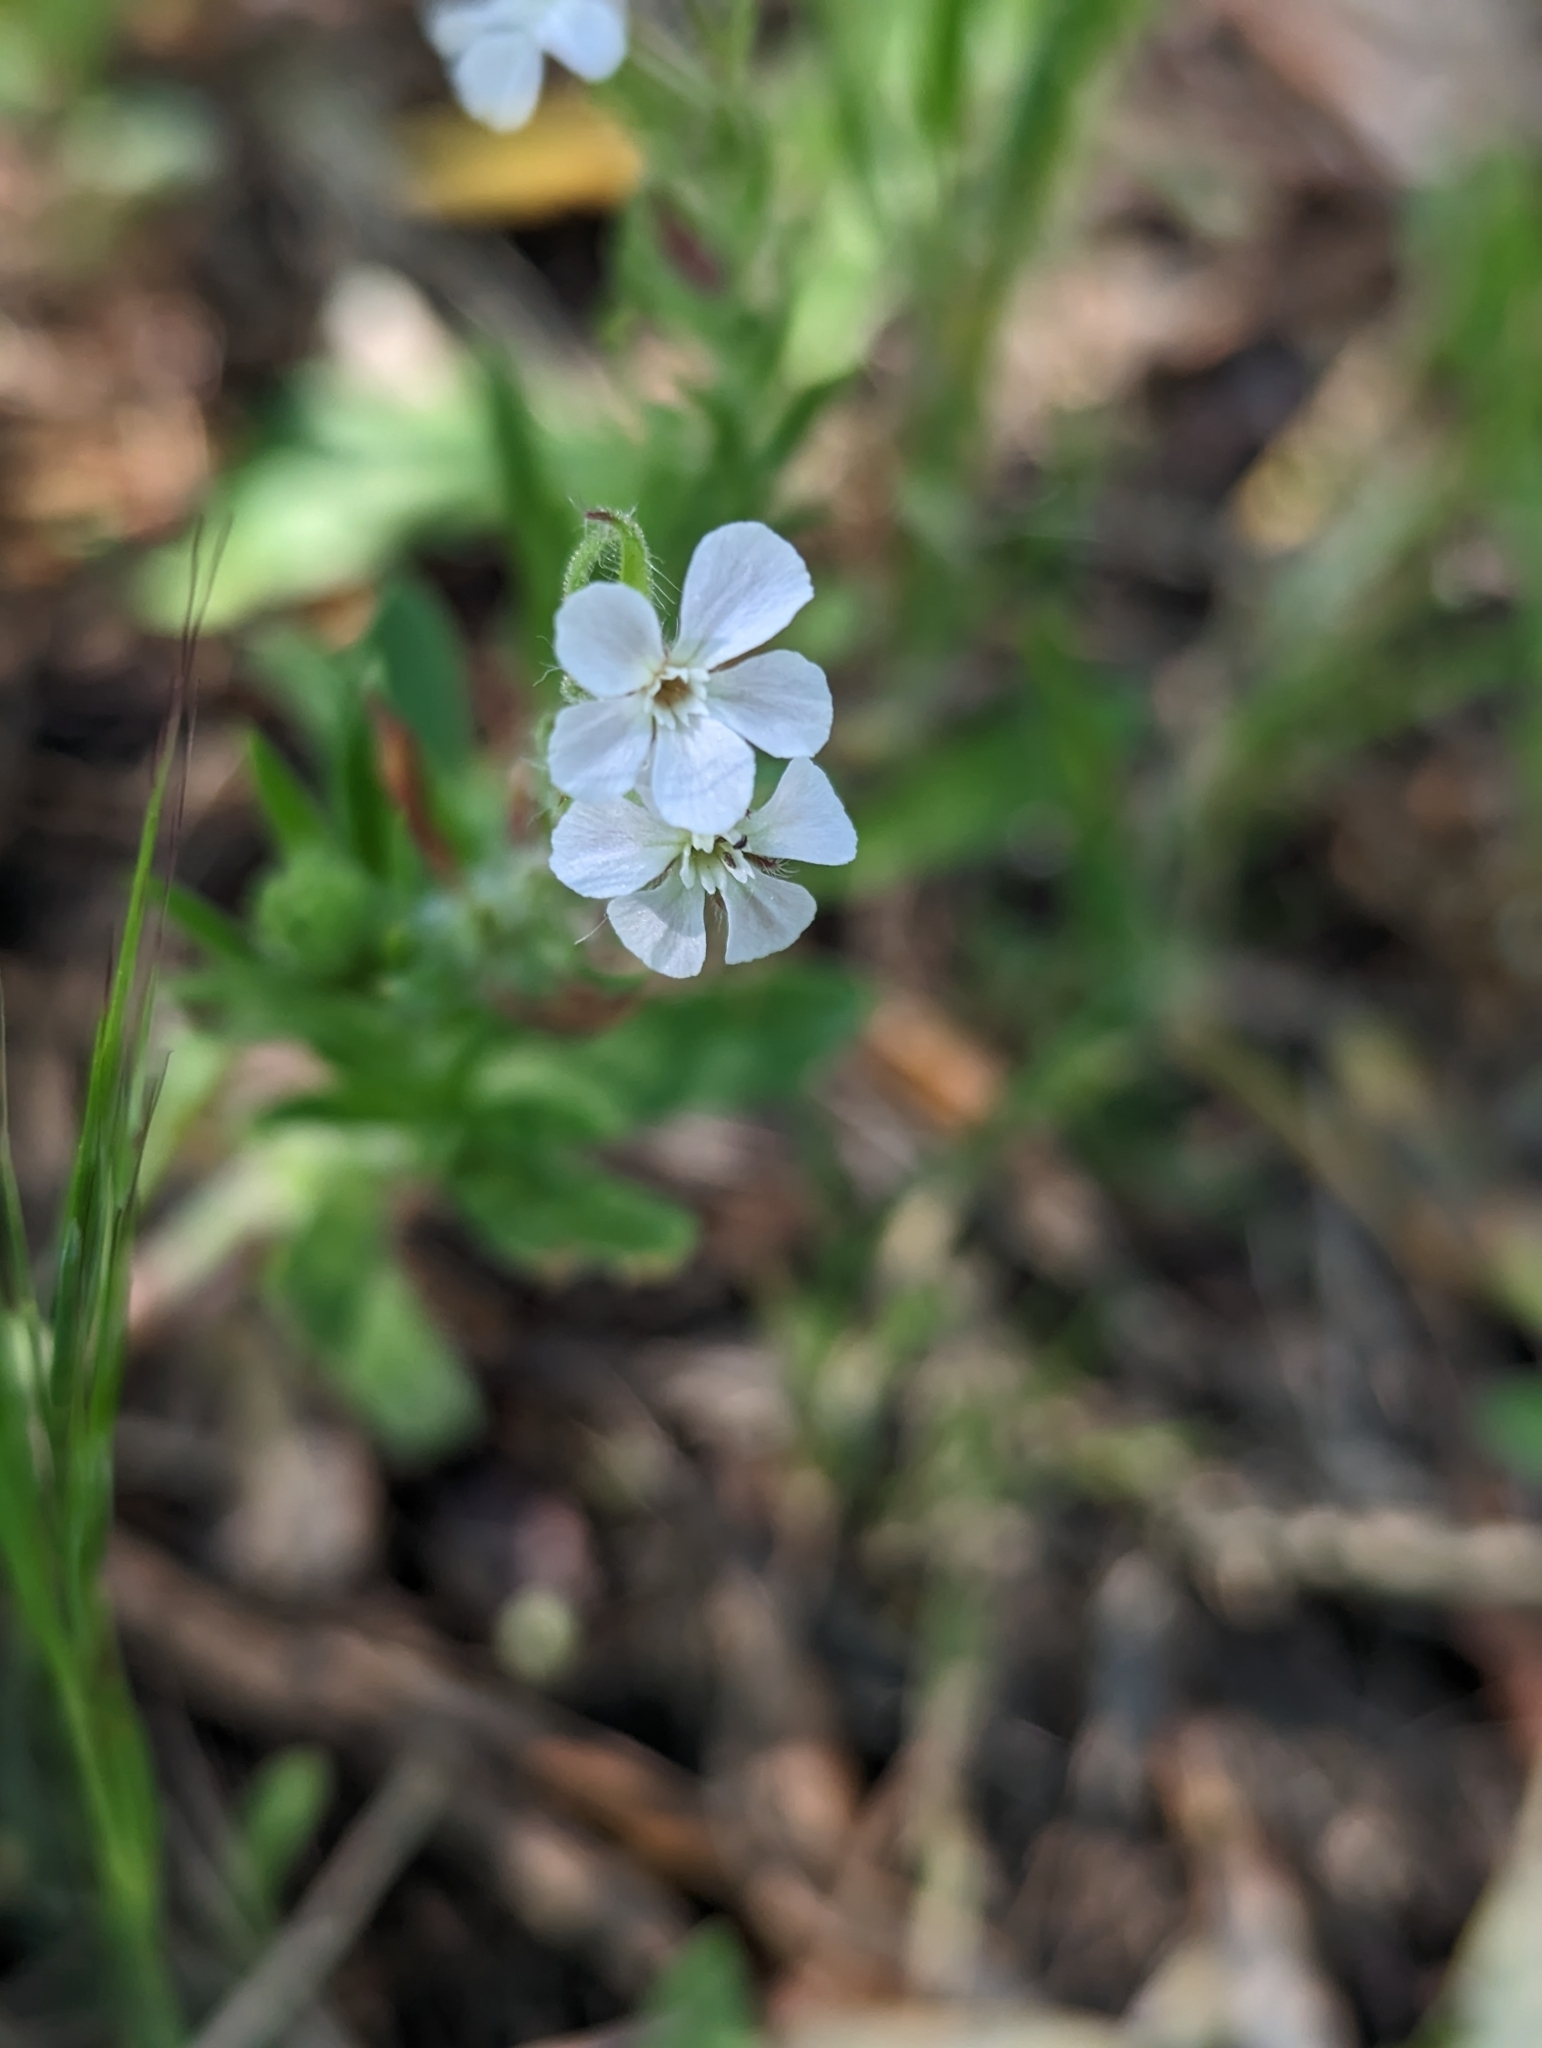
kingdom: Plantae
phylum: Tracheophyta
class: Magnoliopsida
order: Caryophyllales
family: Caryophyllaceae
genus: Silene
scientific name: Silene gallica
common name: Small-flowered catchfly
